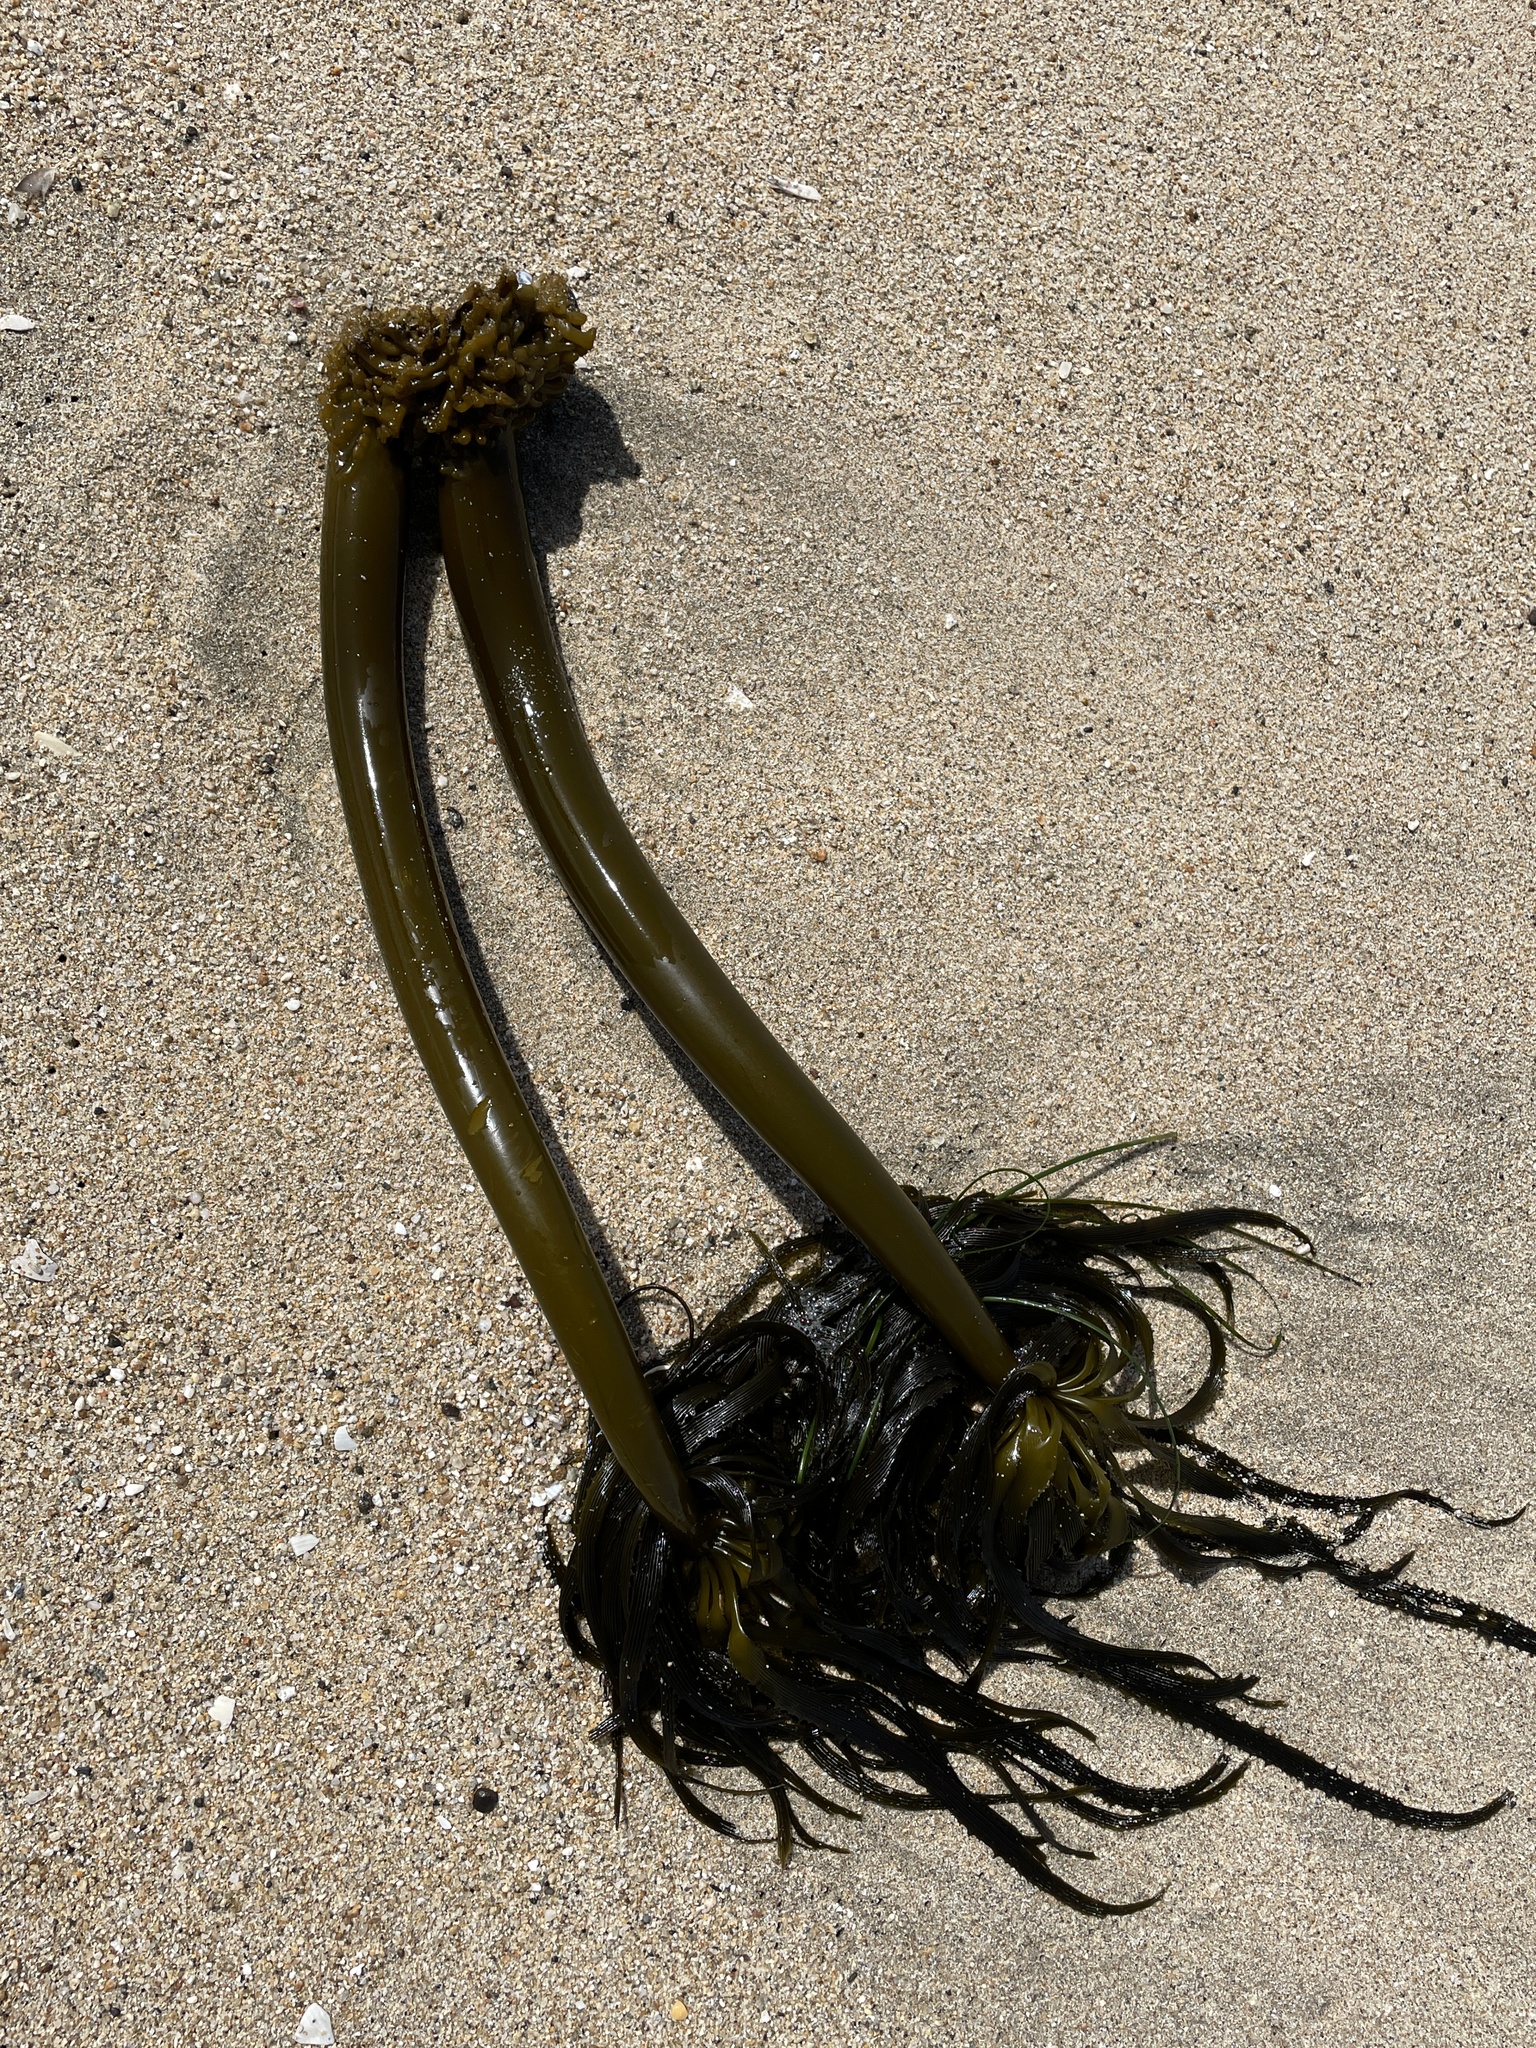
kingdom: Chromista
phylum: Ochrophyta
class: Phaeophyceae
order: Laminariales
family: Laminariaceae
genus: Postelsia
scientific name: Postelsia palmiformis
